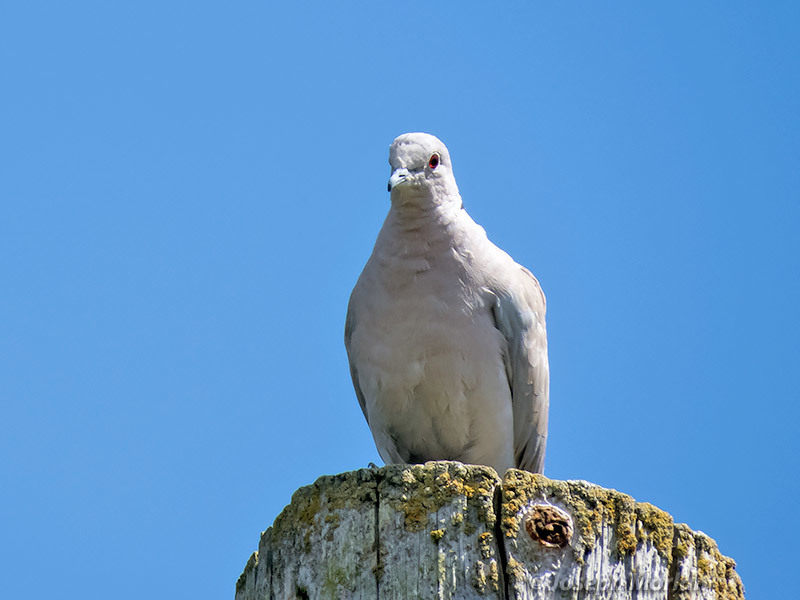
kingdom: Animalia
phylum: Chordata
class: Aves
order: Columbiformes
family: Columbidae
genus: Streptopelia
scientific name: Streptopelia decaocto
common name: Eurasian collared dove
